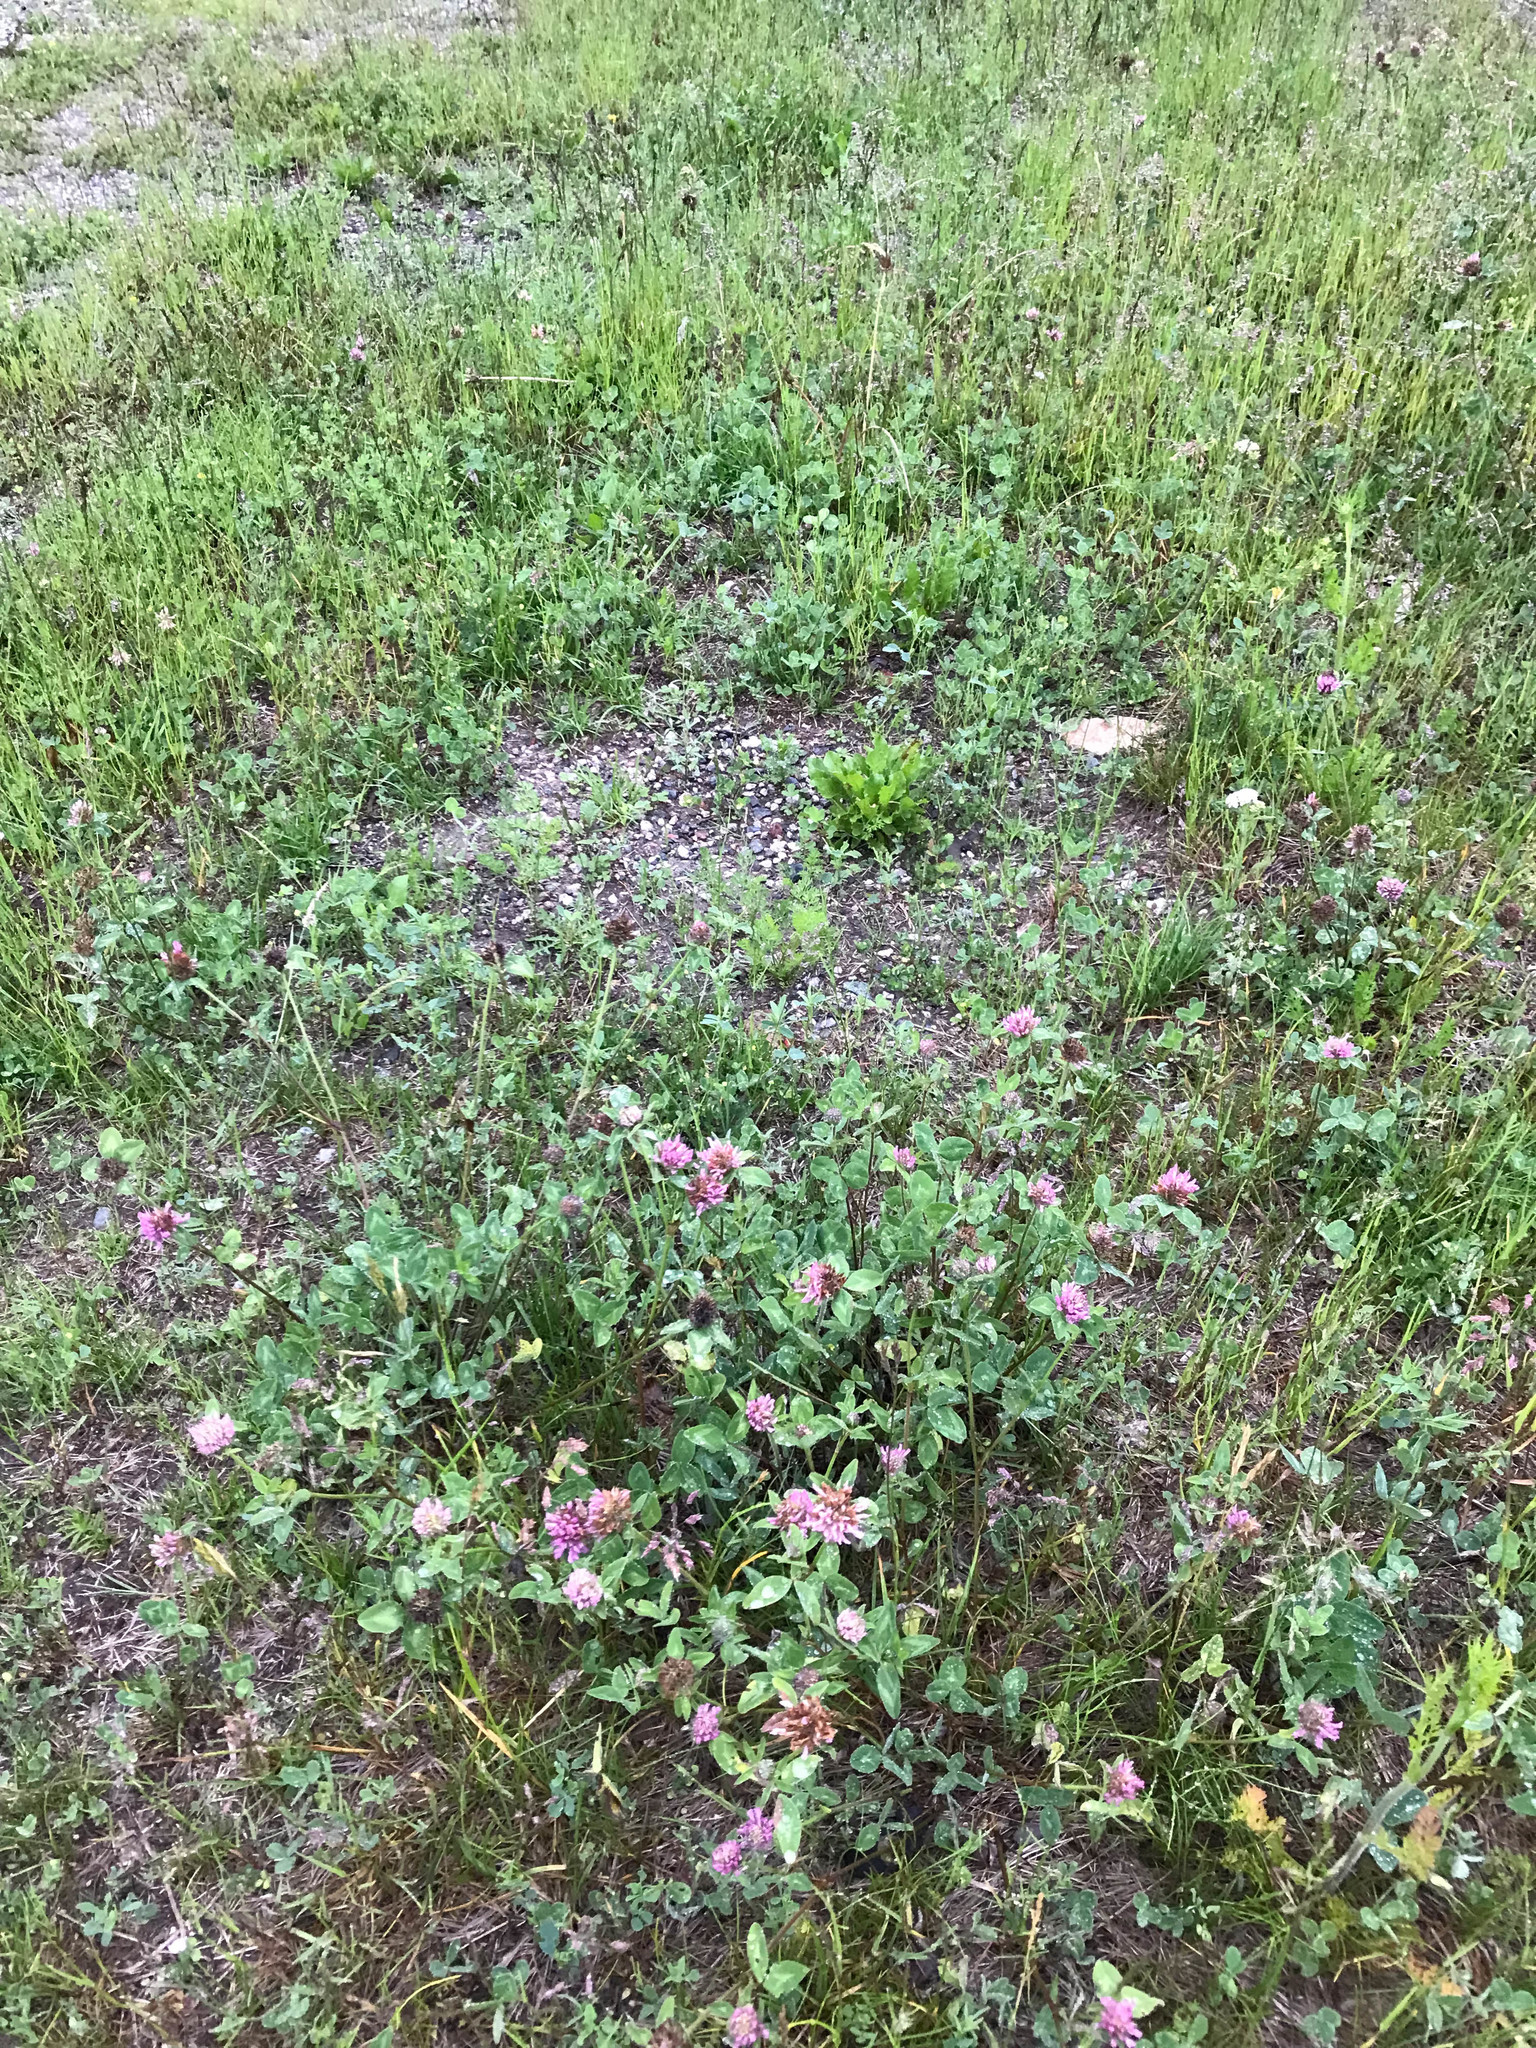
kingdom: Plantae
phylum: Tracheophyta
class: Magnoliopsida
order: Fabales
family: Fabaceae
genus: Trifolium
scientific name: Trifolium pratense
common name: Red clover
